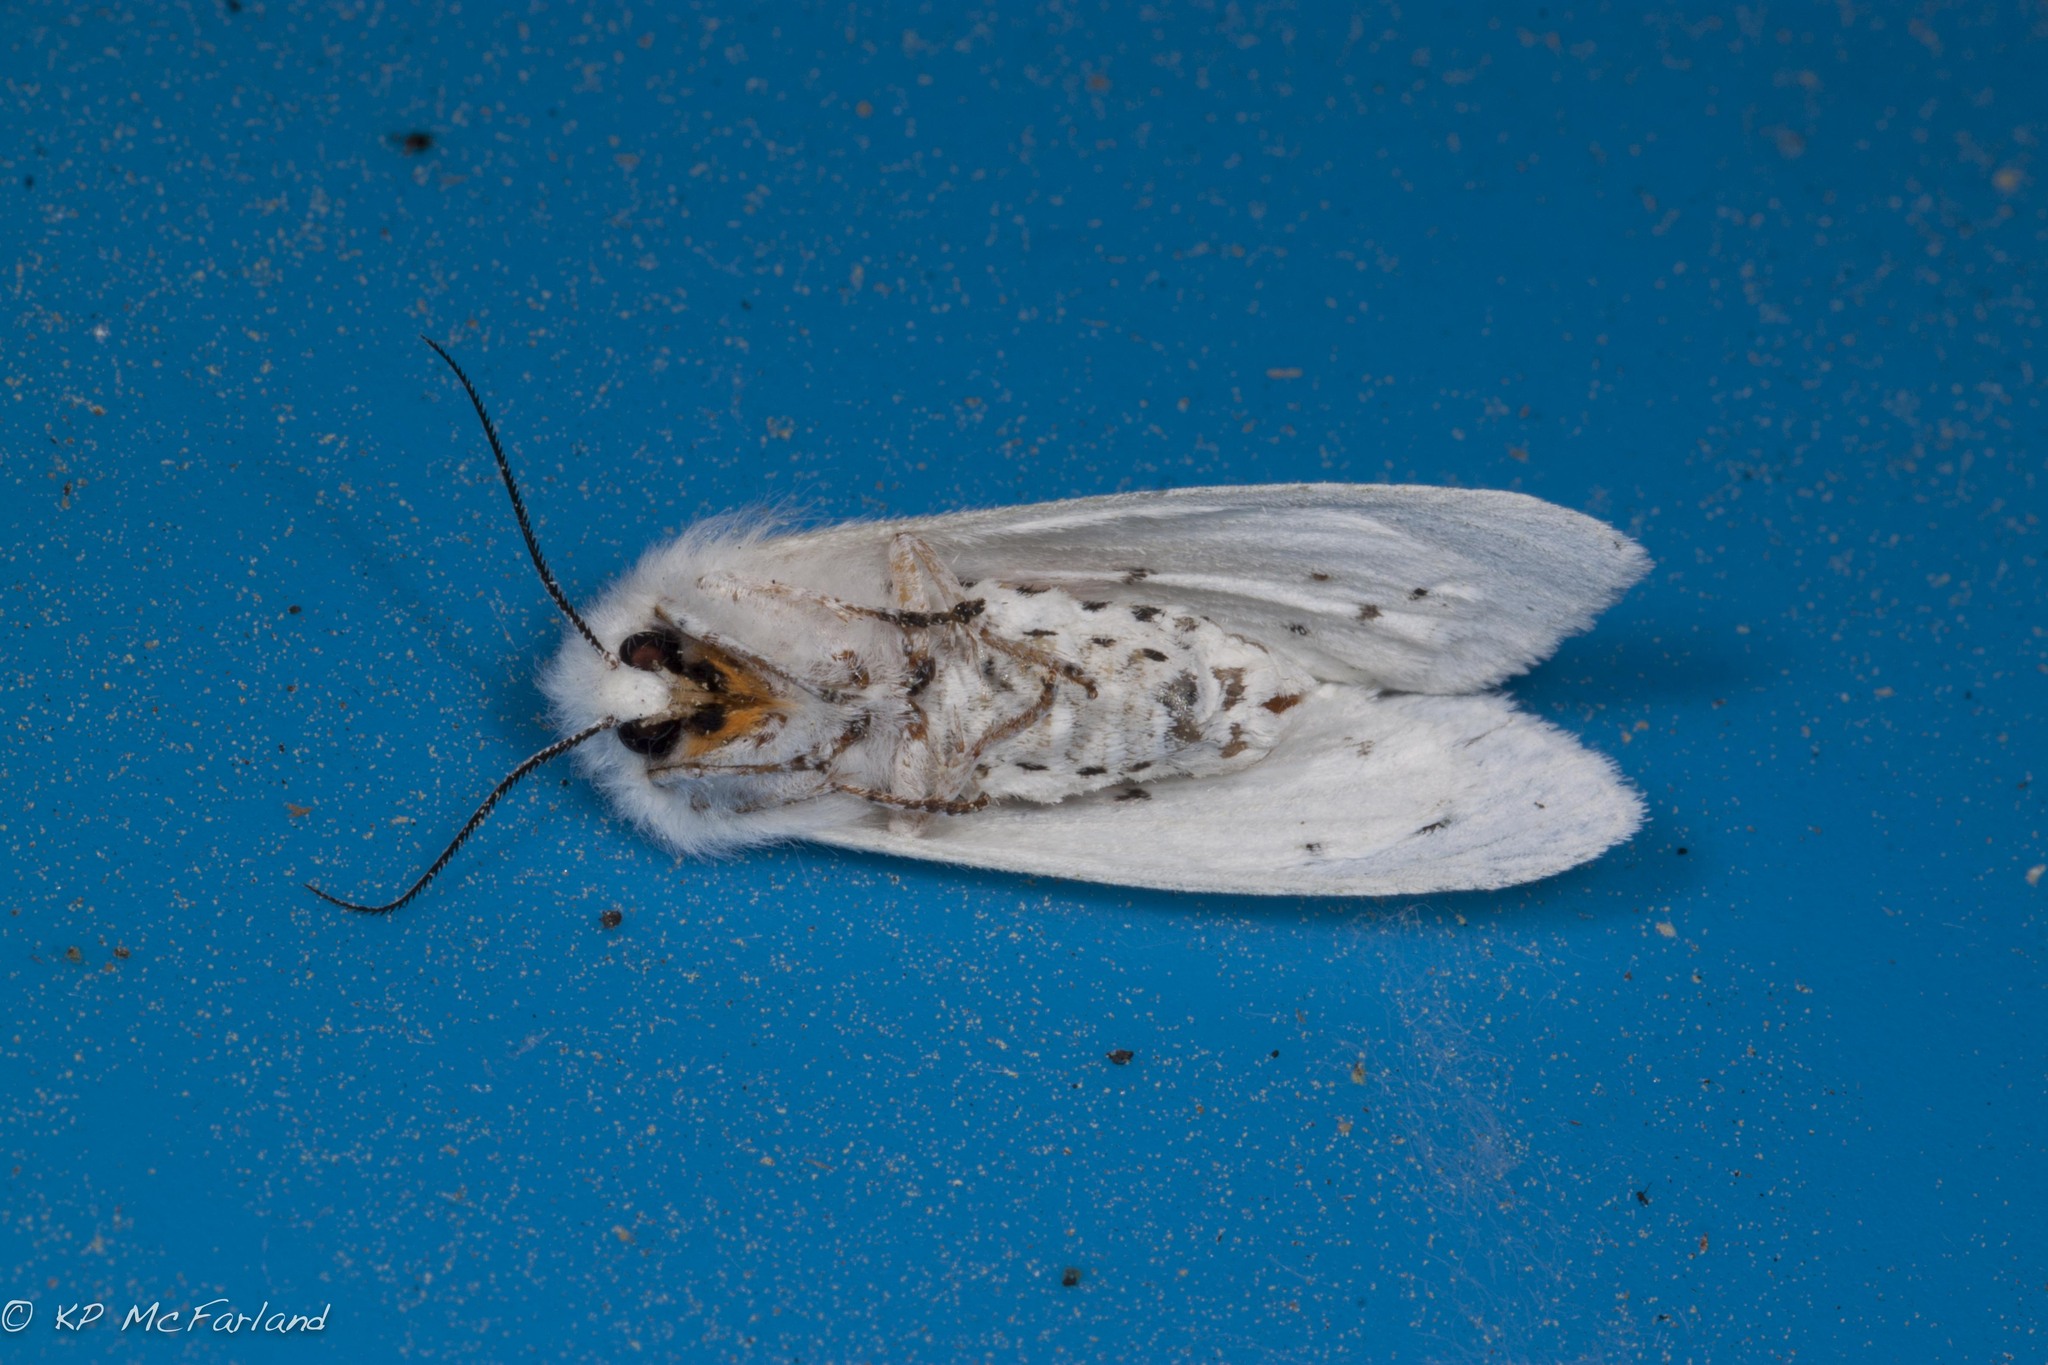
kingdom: Animalia
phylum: Arthropoda
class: Insecta
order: Lepidoptera
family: Erebidae
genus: Spilosoma
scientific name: Spilosoma virginica
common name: Virginia tiger moth
